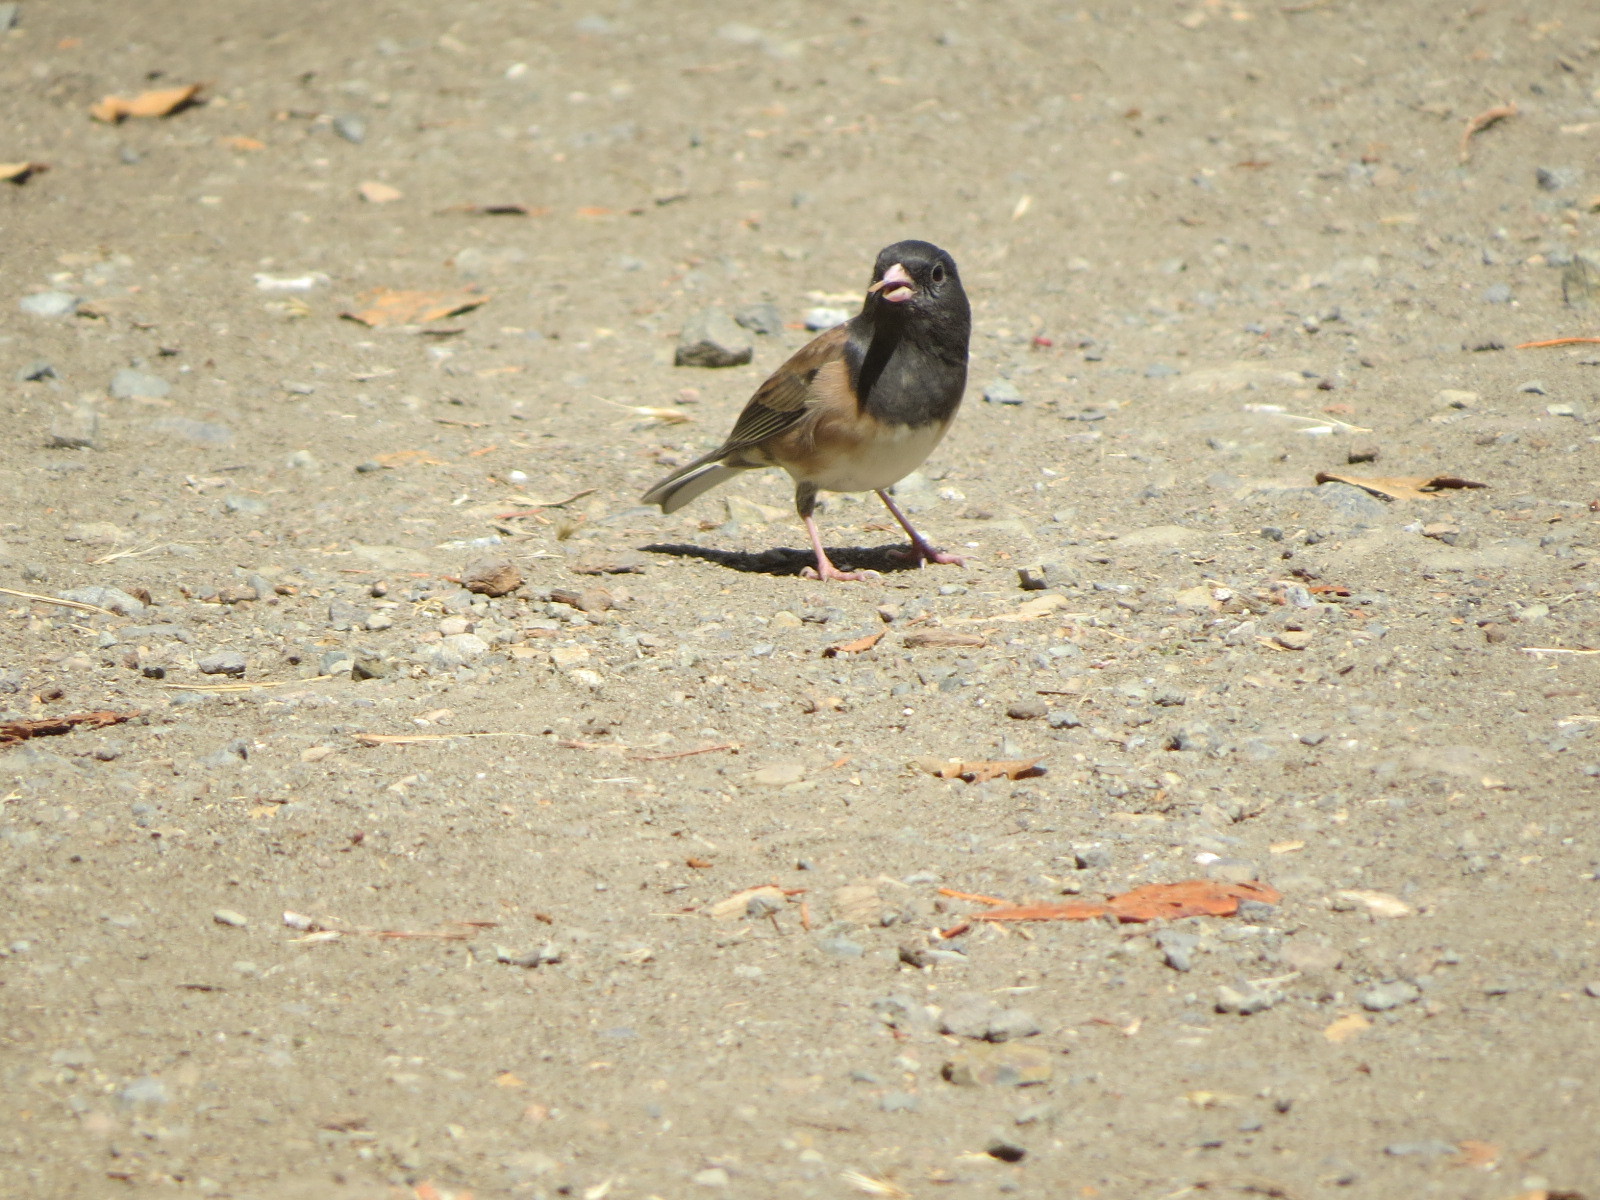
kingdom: Animalia
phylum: Chordata
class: Aves
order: Passeriformes
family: Passerellidae
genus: Junco
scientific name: Junco hyemalis
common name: Dark-eyed junco
